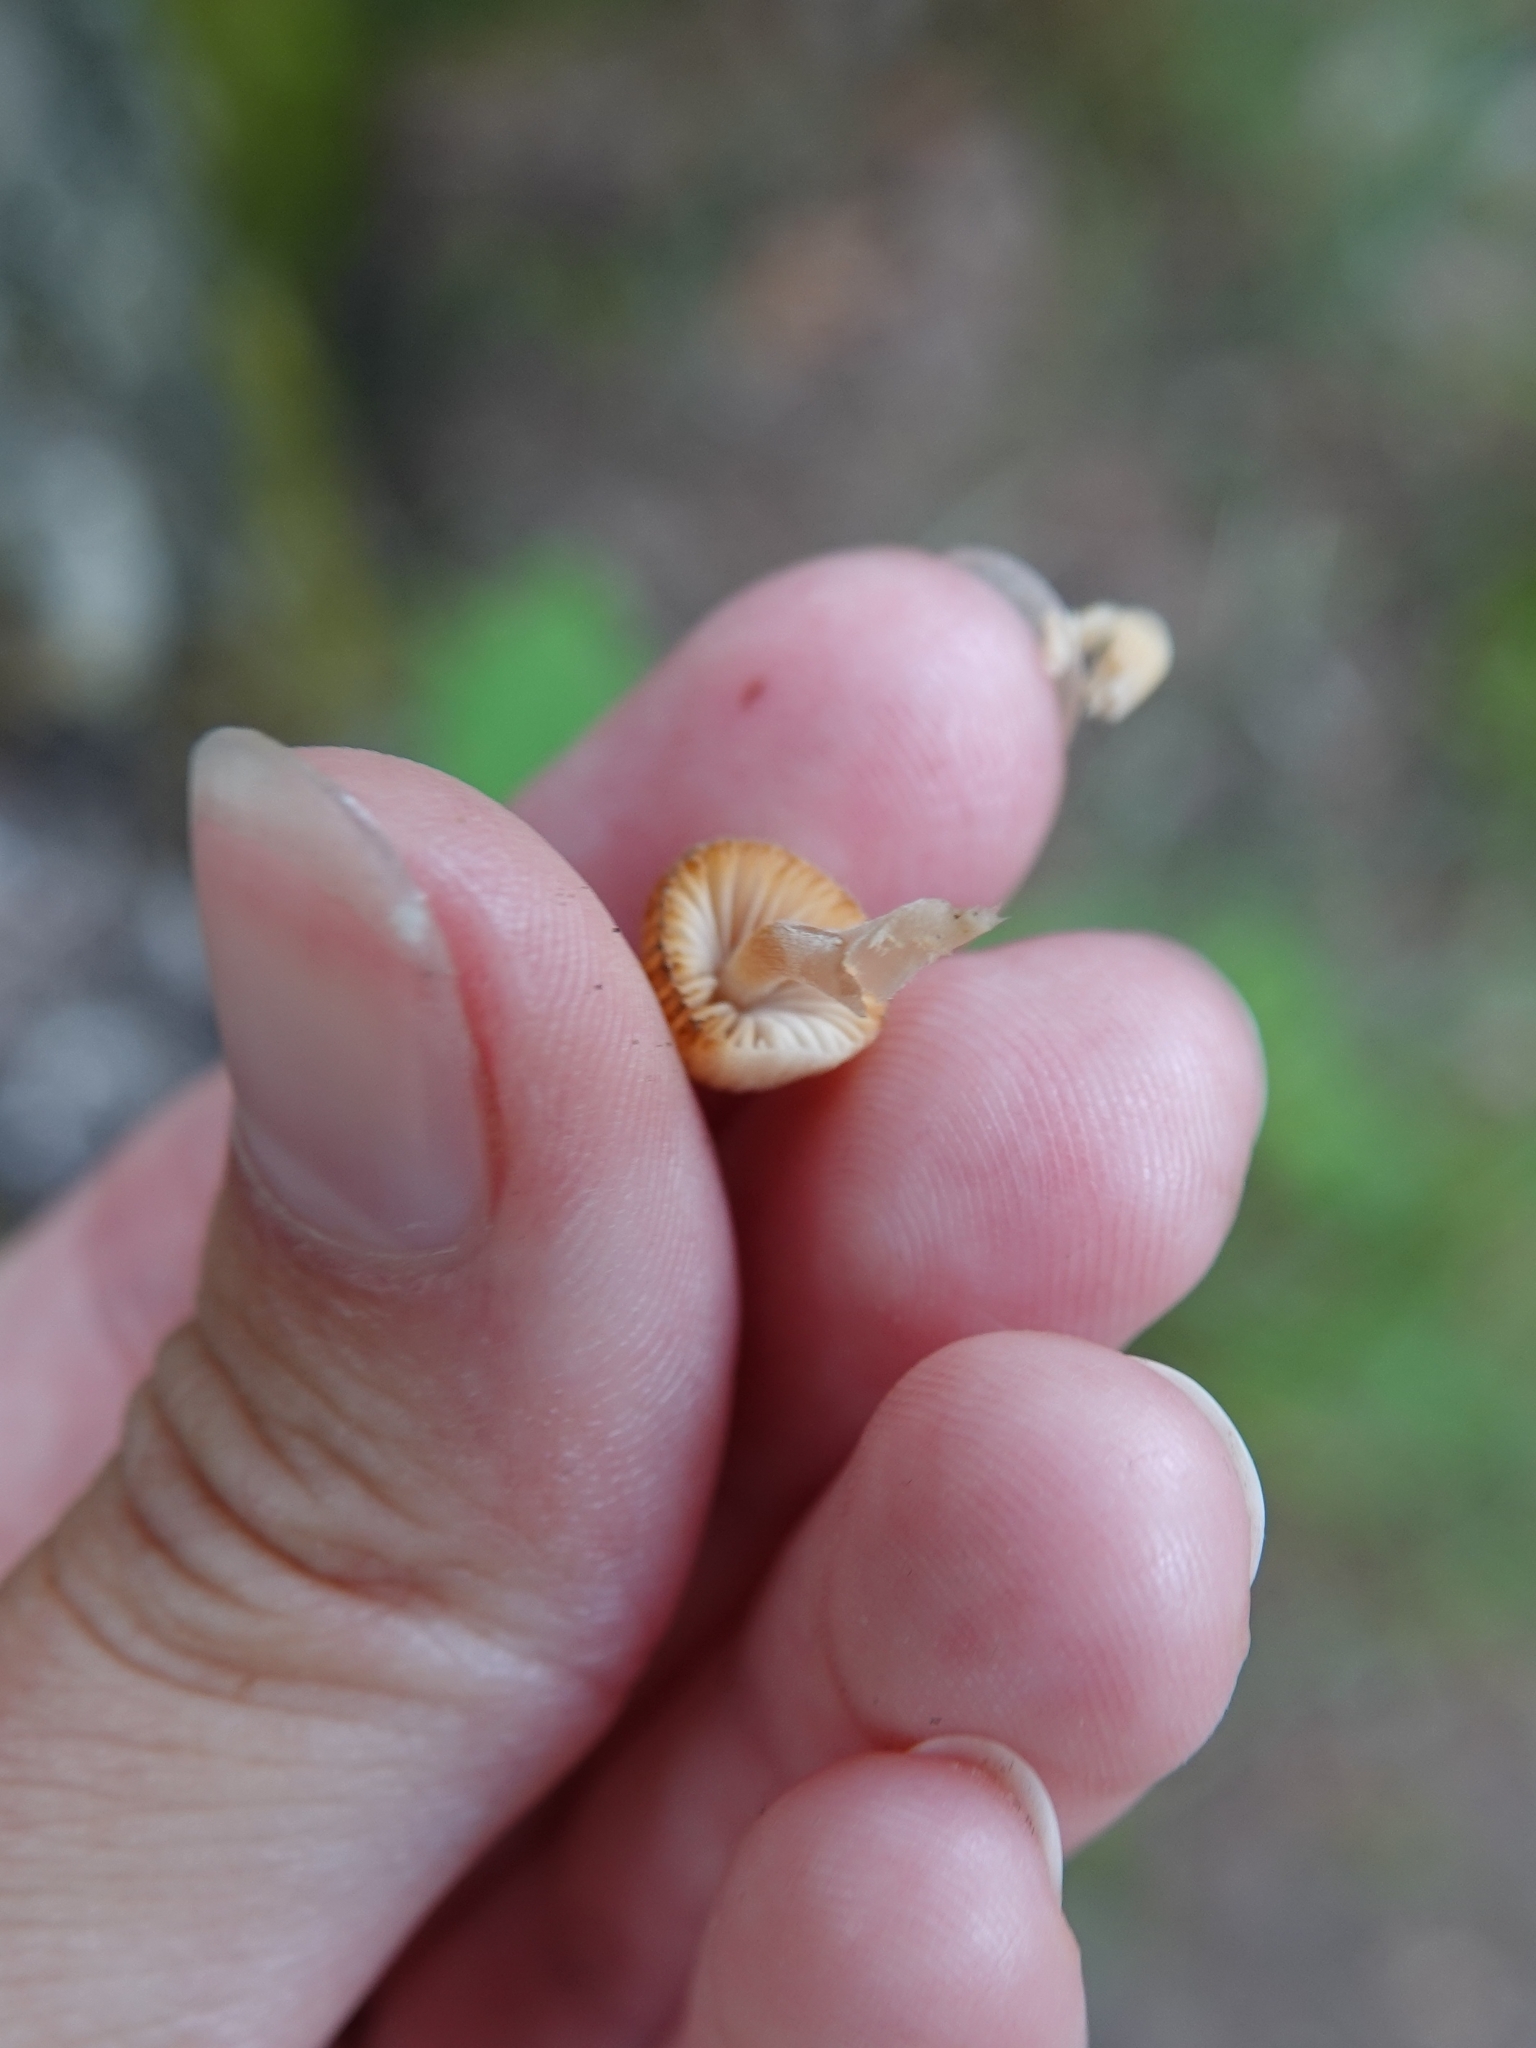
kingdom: Fungi
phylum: Basidiomycota
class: Agaricomycetes
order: Agaricales
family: Psathyrellaceae
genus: Coprinellus
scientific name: Coprinellus disseminatus
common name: Fairies' bonnets
